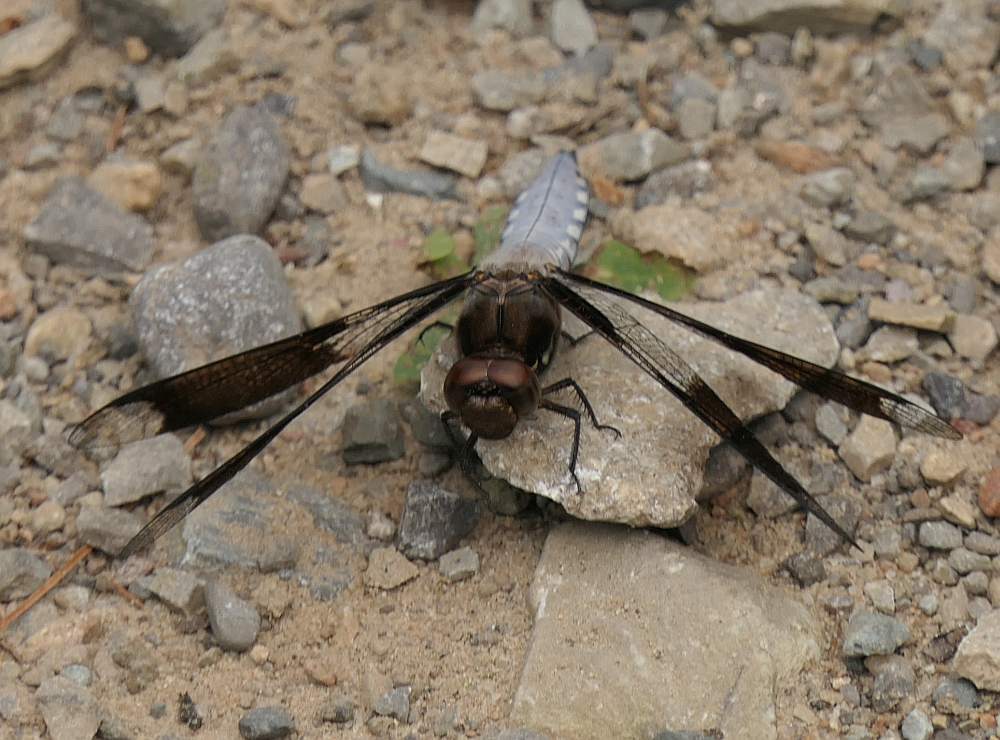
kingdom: Animalia
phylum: Arthropoda
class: Insecta
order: Odonata
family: Libellulidae
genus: Plathemis
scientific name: Plathemis lydia
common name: Common whitetail
